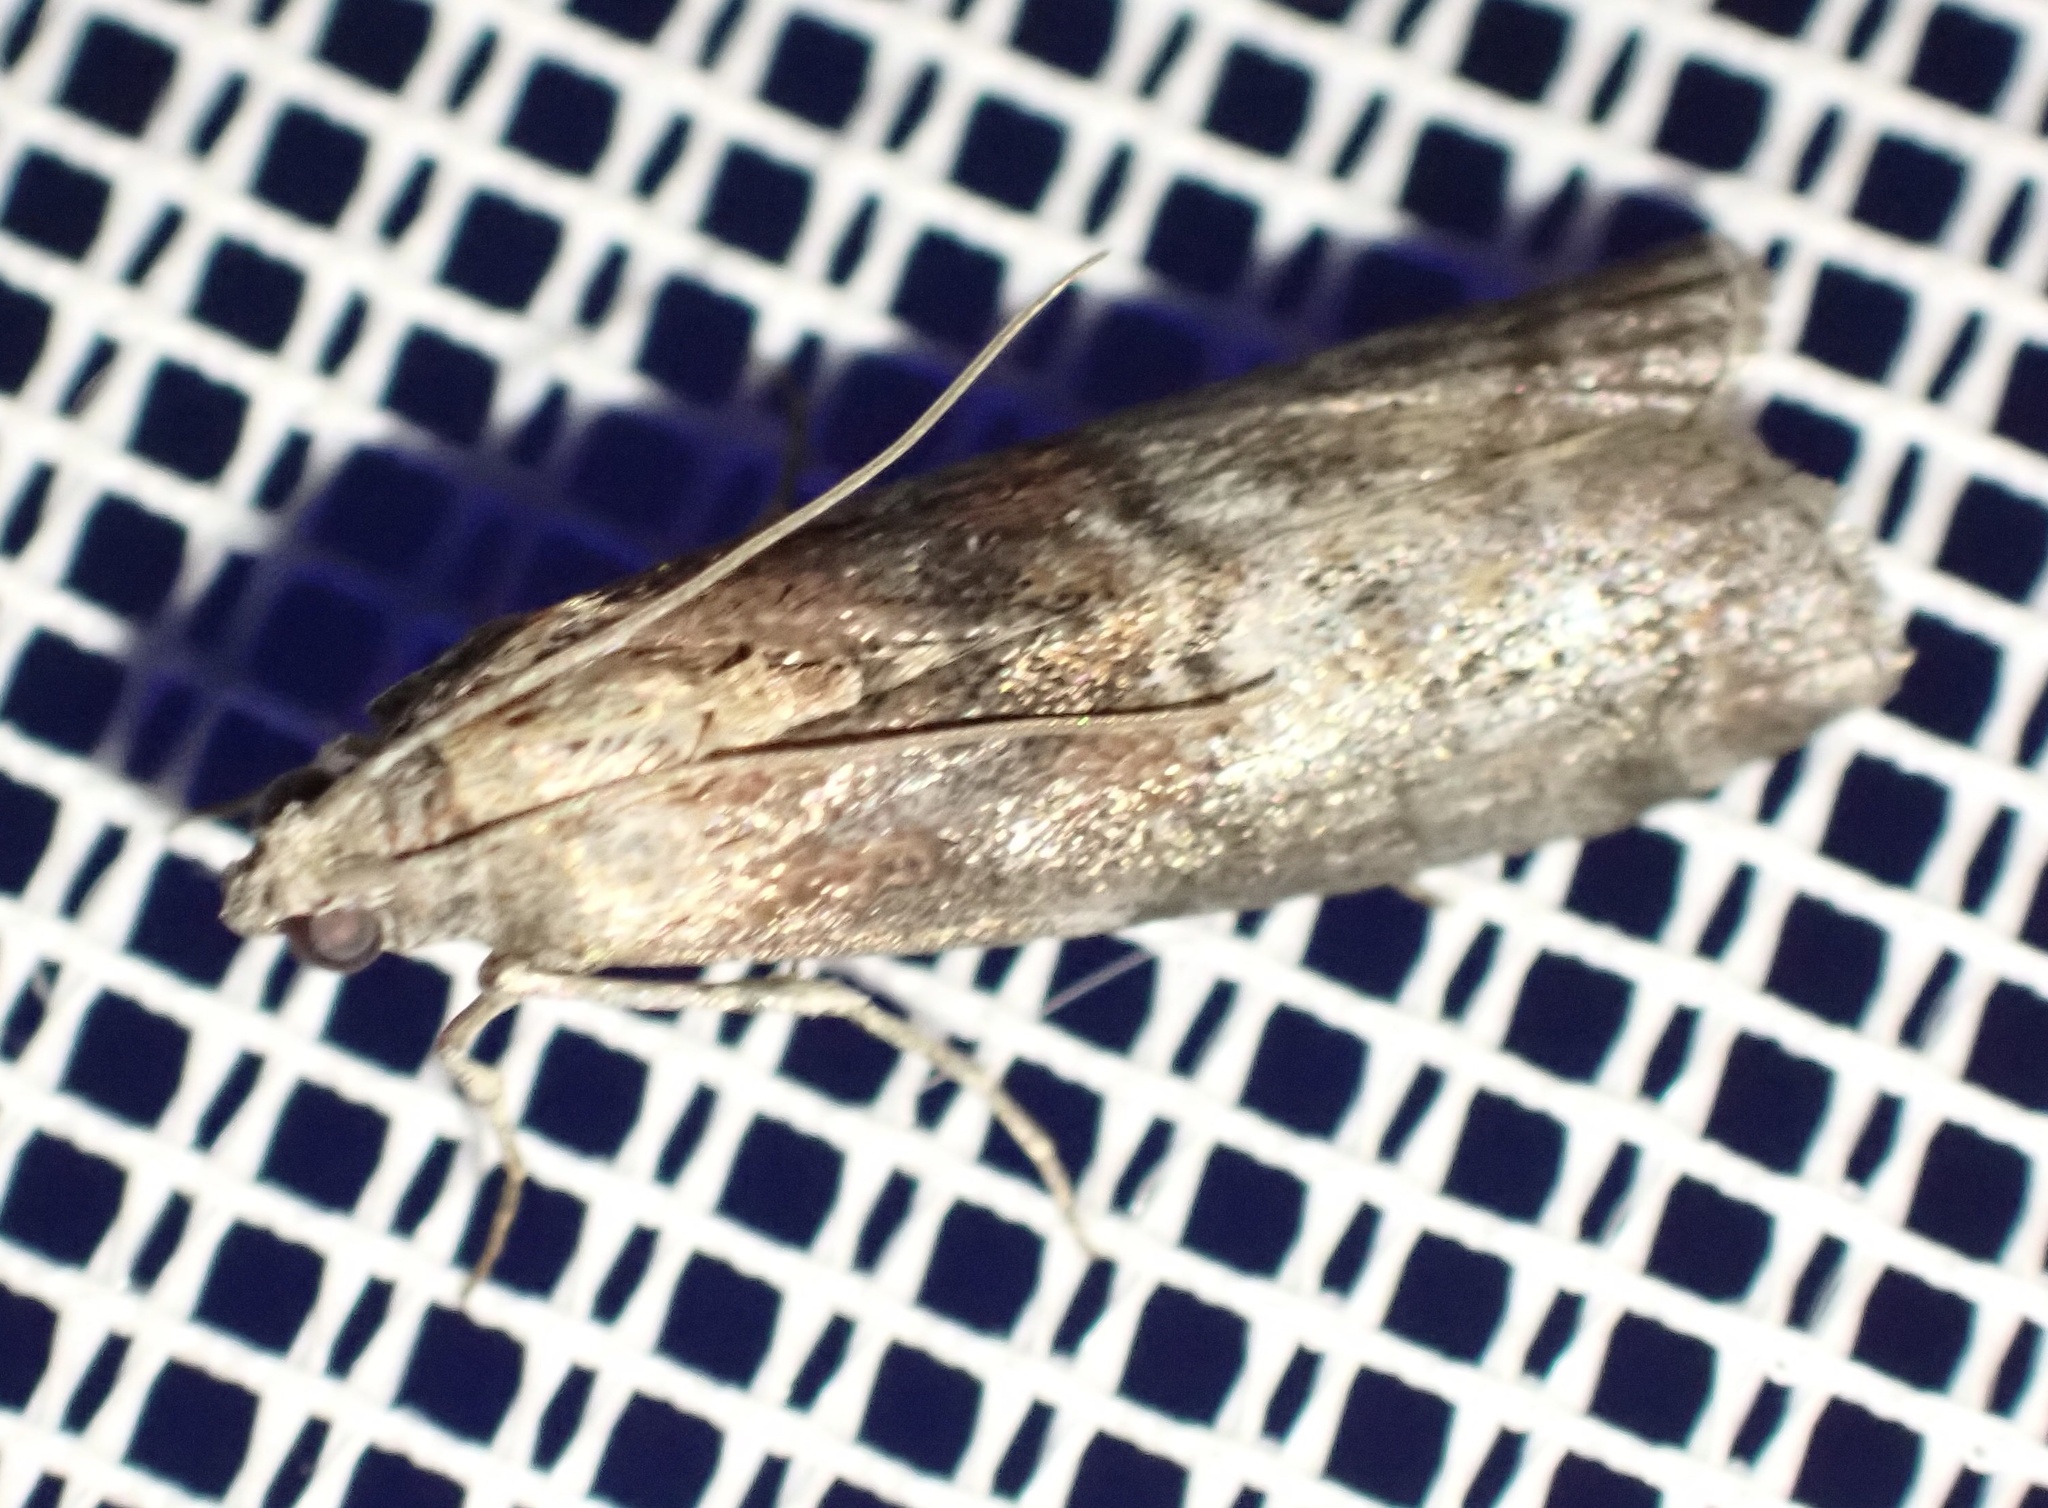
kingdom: Animalia
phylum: Arthropoda
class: Insecta
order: Lepidoptera
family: Pyralidae
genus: Phycita
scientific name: Phycita roborella
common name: Dotted oak knot-horn
